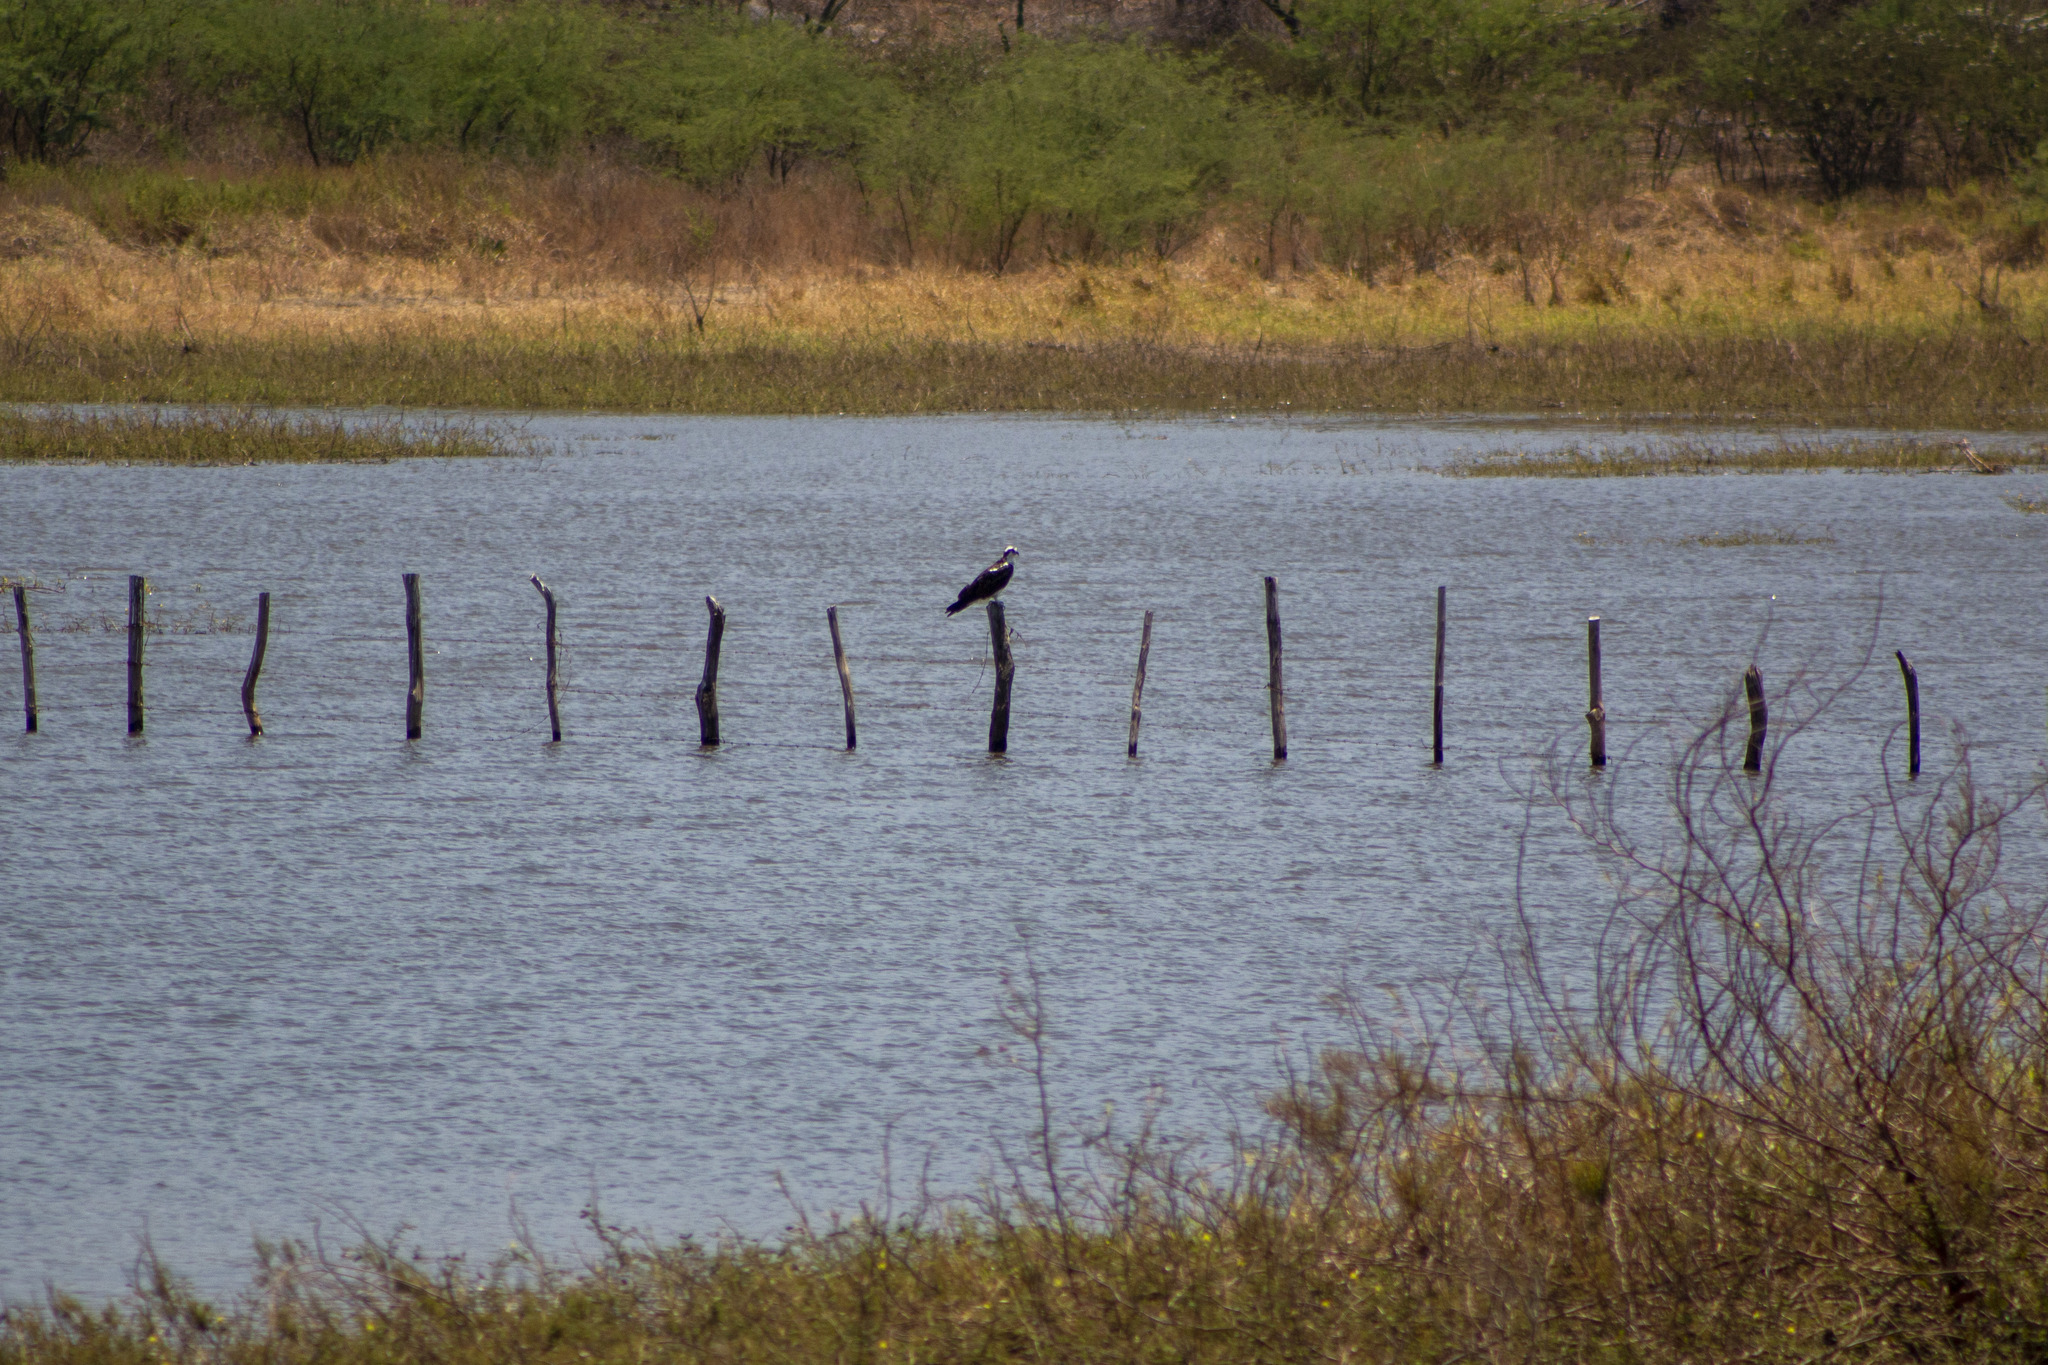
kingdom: Animalia
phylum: Chordata
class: Aves
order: Accipitriformes
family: Pandionidae
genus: Pandion
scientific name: Pandion haliaetus
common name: Osprey
